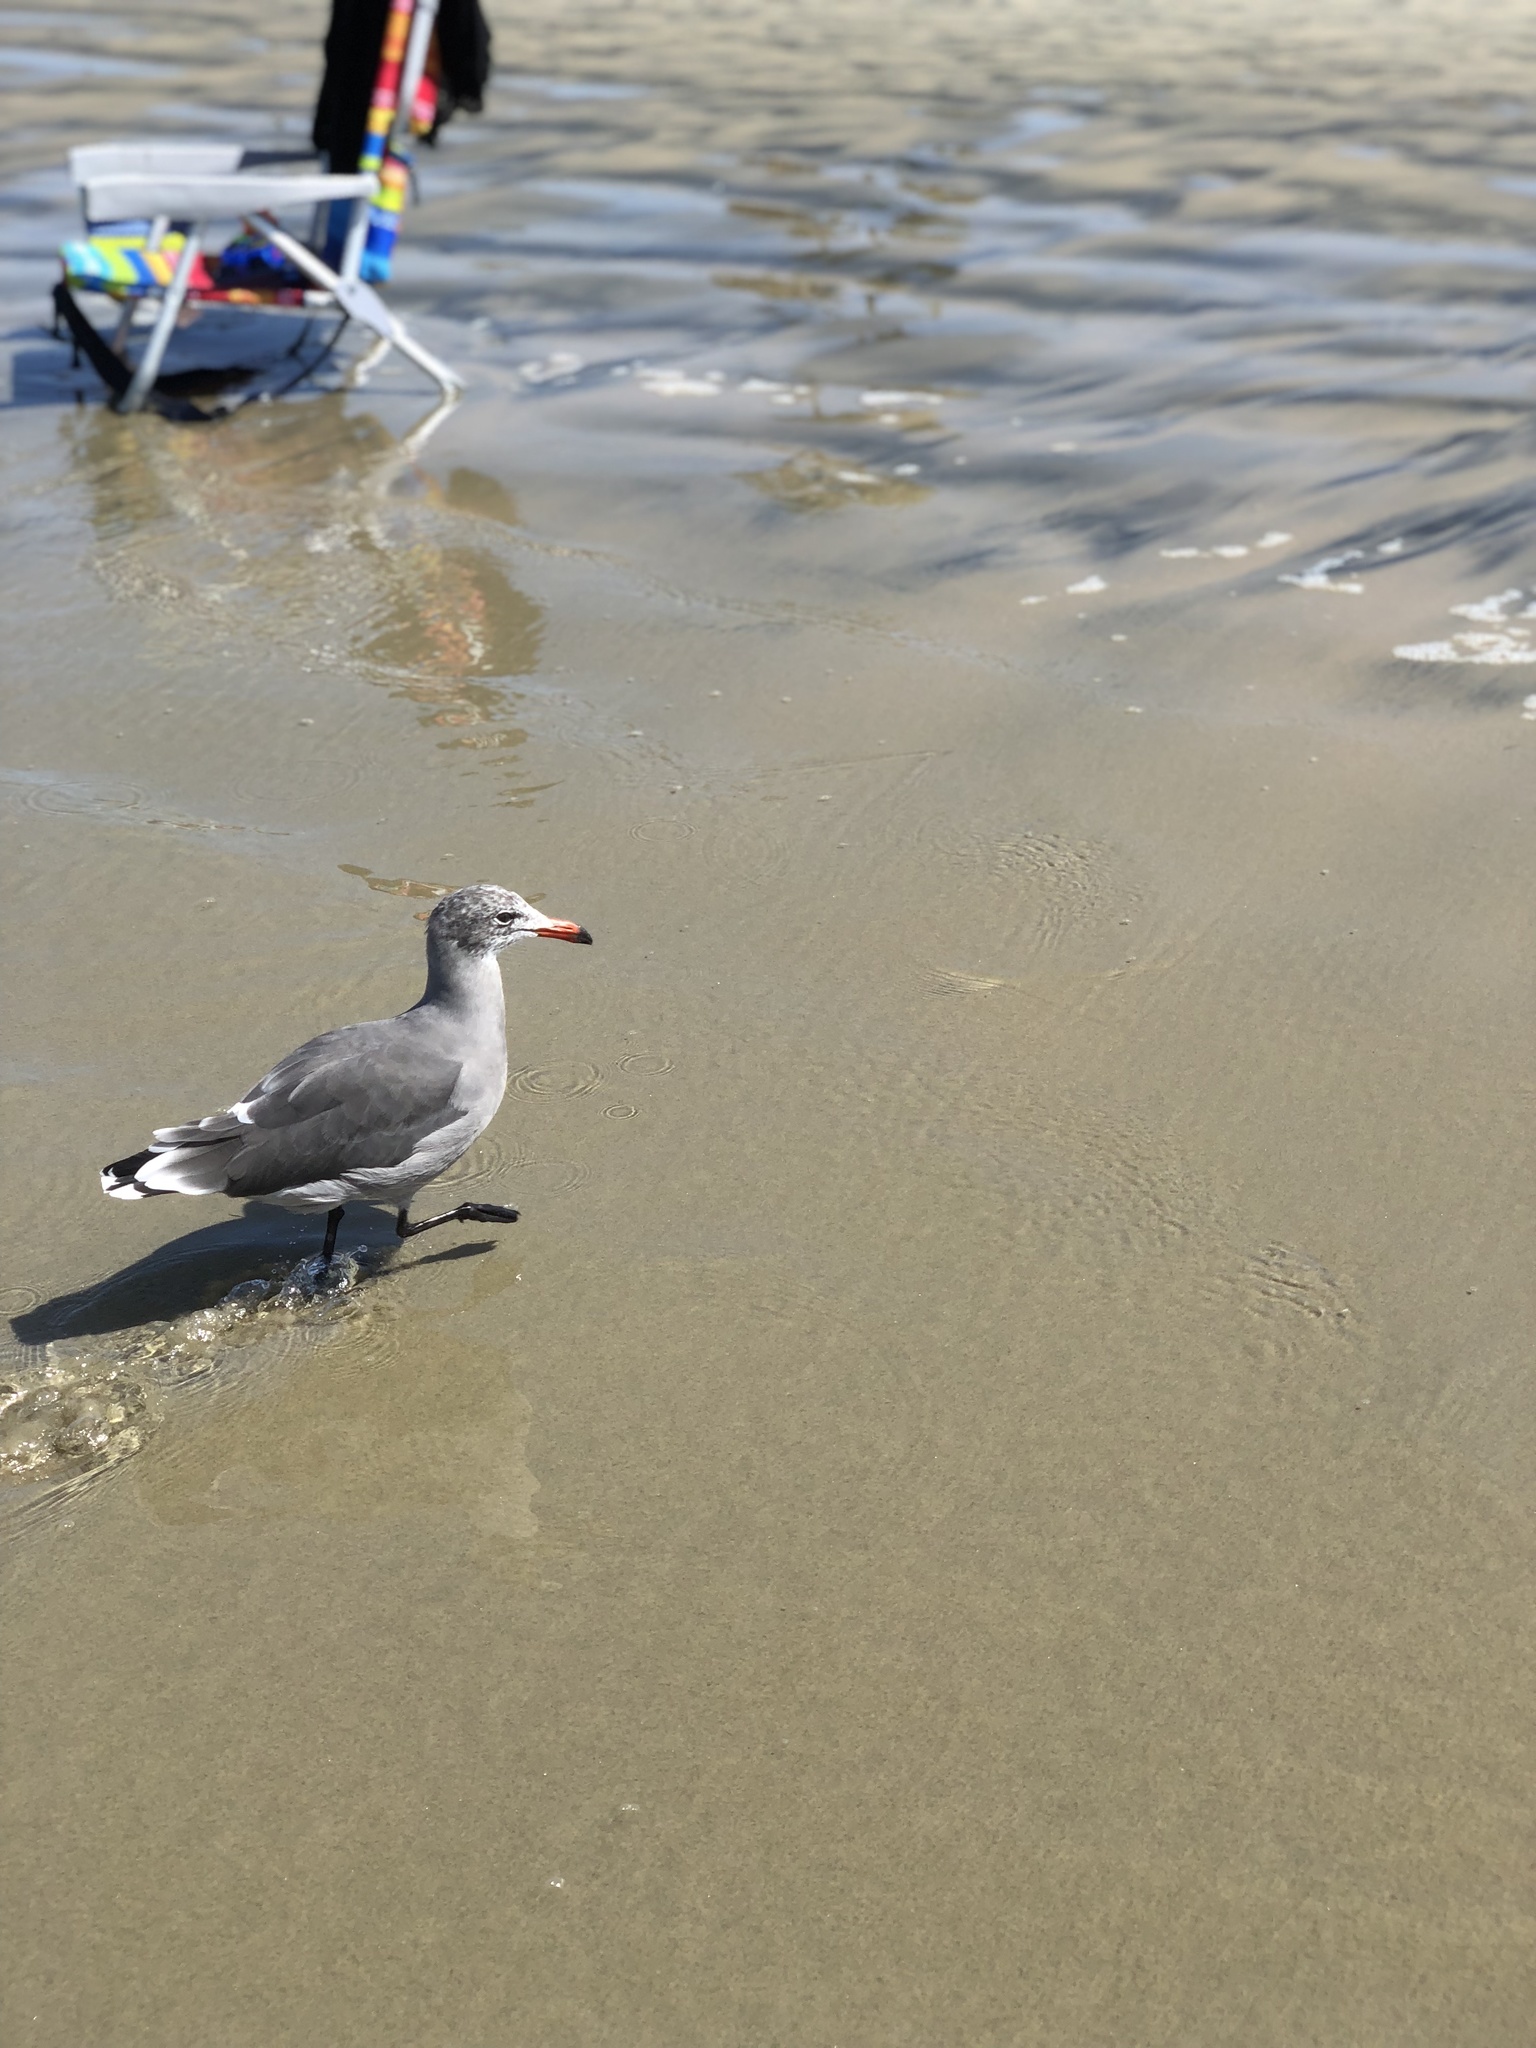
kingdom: Animalia
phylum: Chordata
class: Aves
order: Charadriiformes
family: Laridae
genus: Larus
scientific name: Larus heermanni
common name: Heermann's gull
